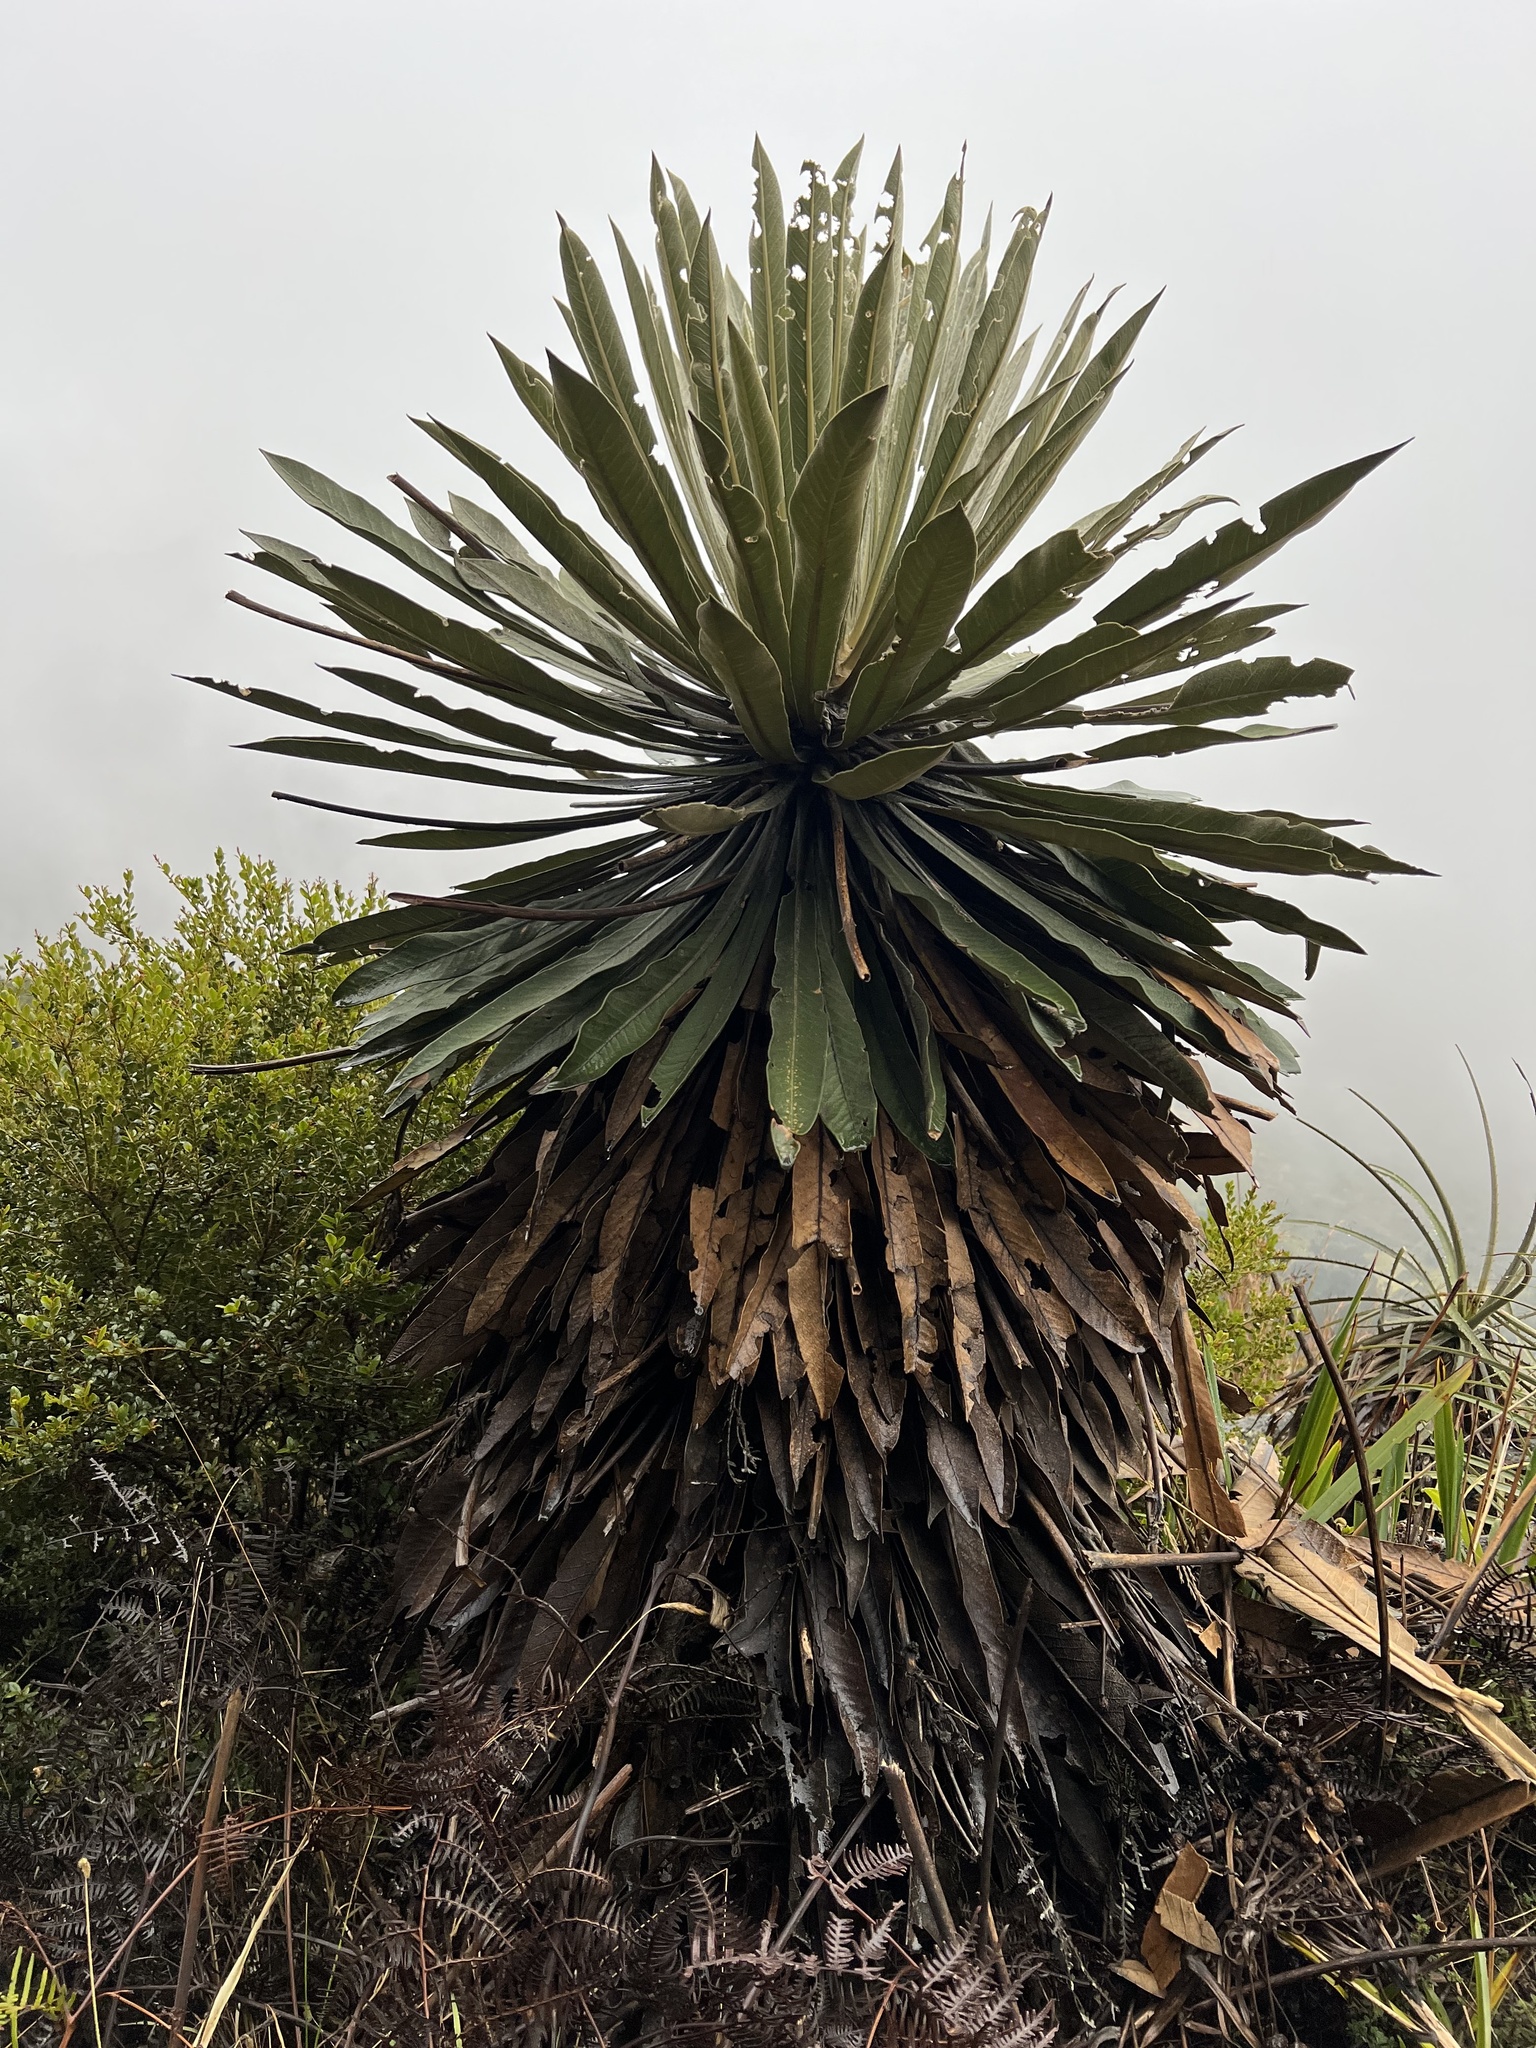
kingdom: Plantae
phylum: Tracheophyta
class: Magnoliopsida
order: Asterales
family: Asteraceae
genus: Espeletia
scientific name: Espeletia corymbosa
